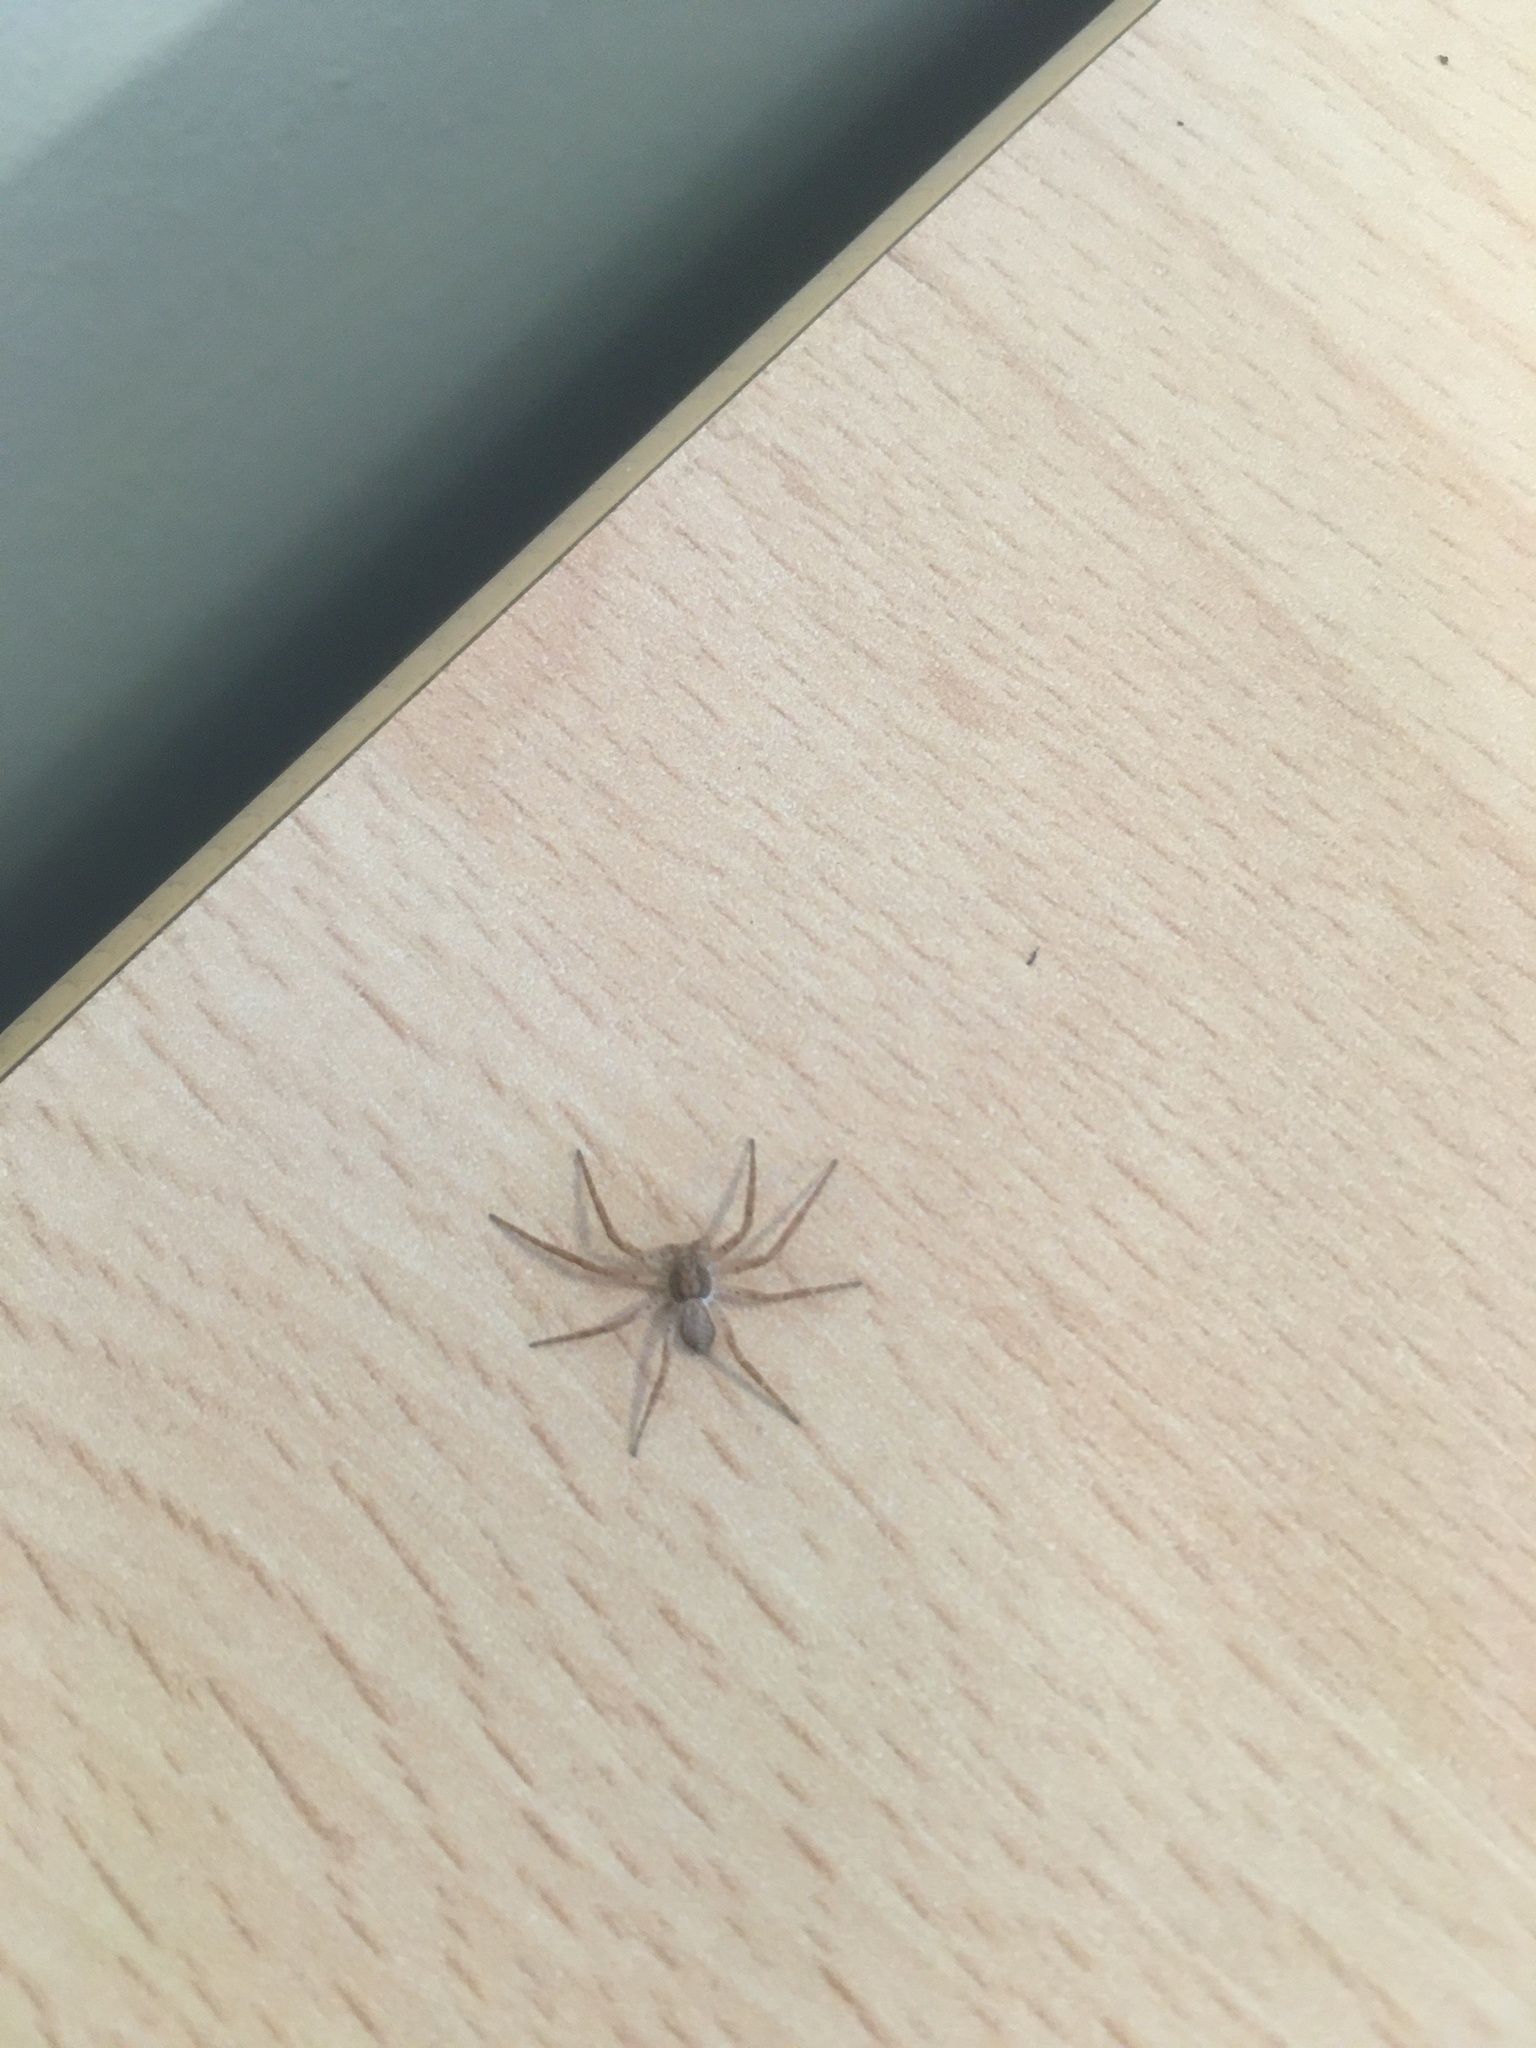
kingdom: Animalia
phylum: Arthropoda
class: Arachnida
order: Araneae
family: Philodromidae
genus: Philodromus
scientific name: Philodromus dispar
